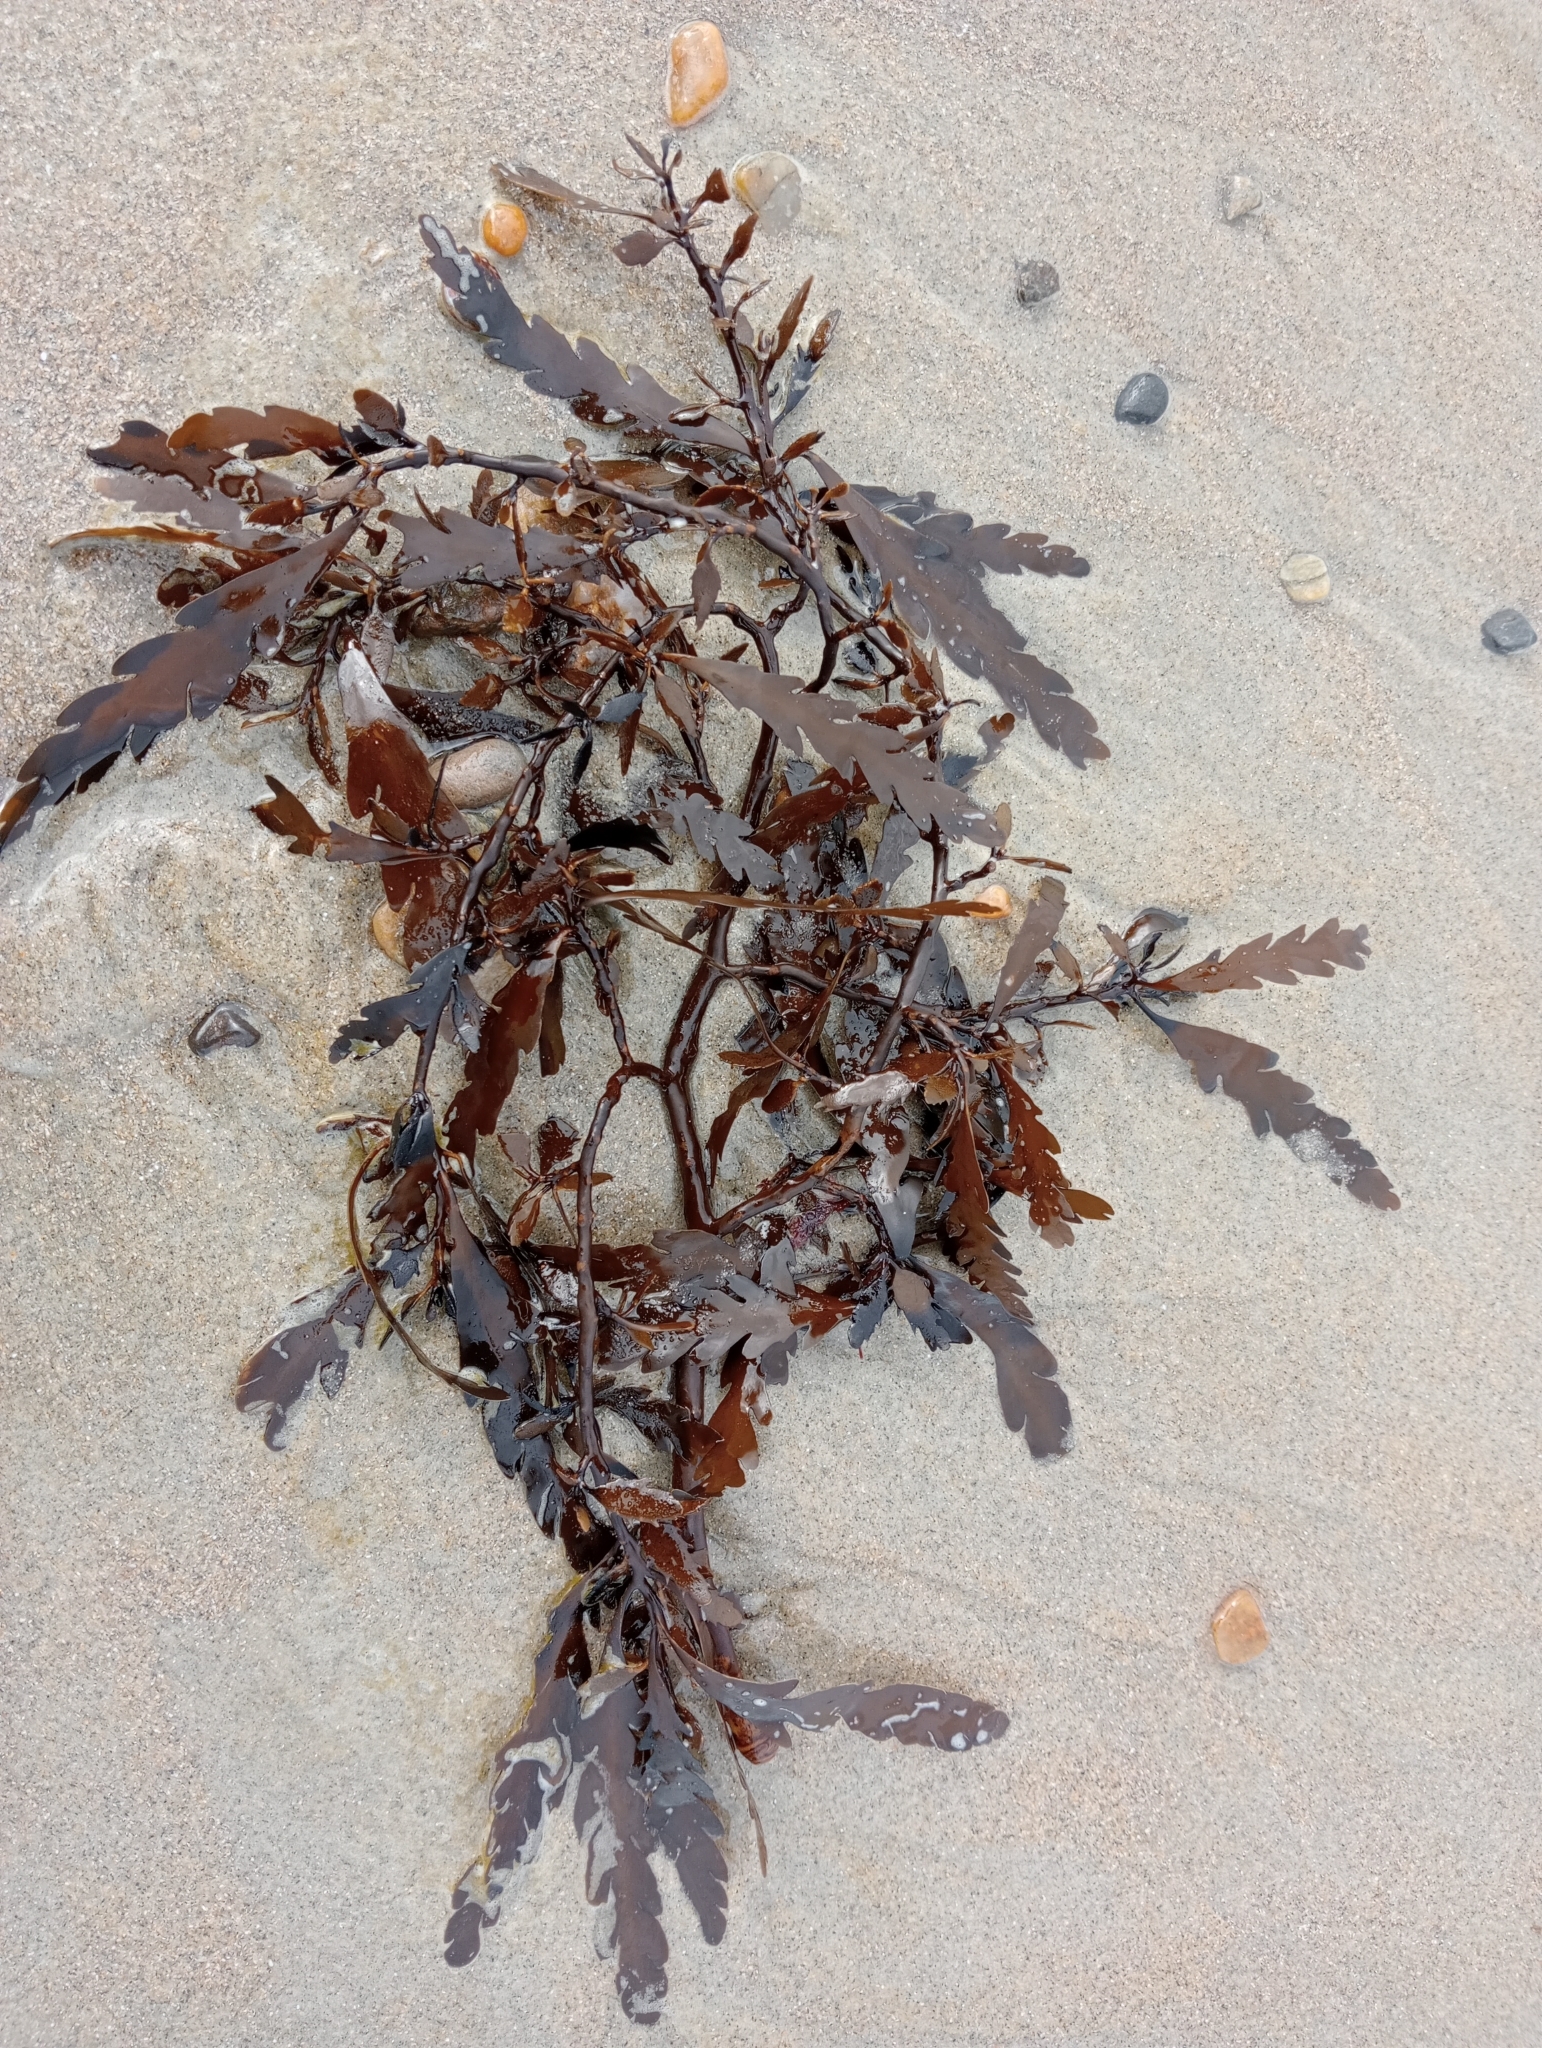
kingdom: Chromista
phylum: Ochrophyta
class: Phaeophyceae
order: Fucales
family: Sargassaceae
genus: Landsburgia
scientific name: Landsburgia quercifolia
